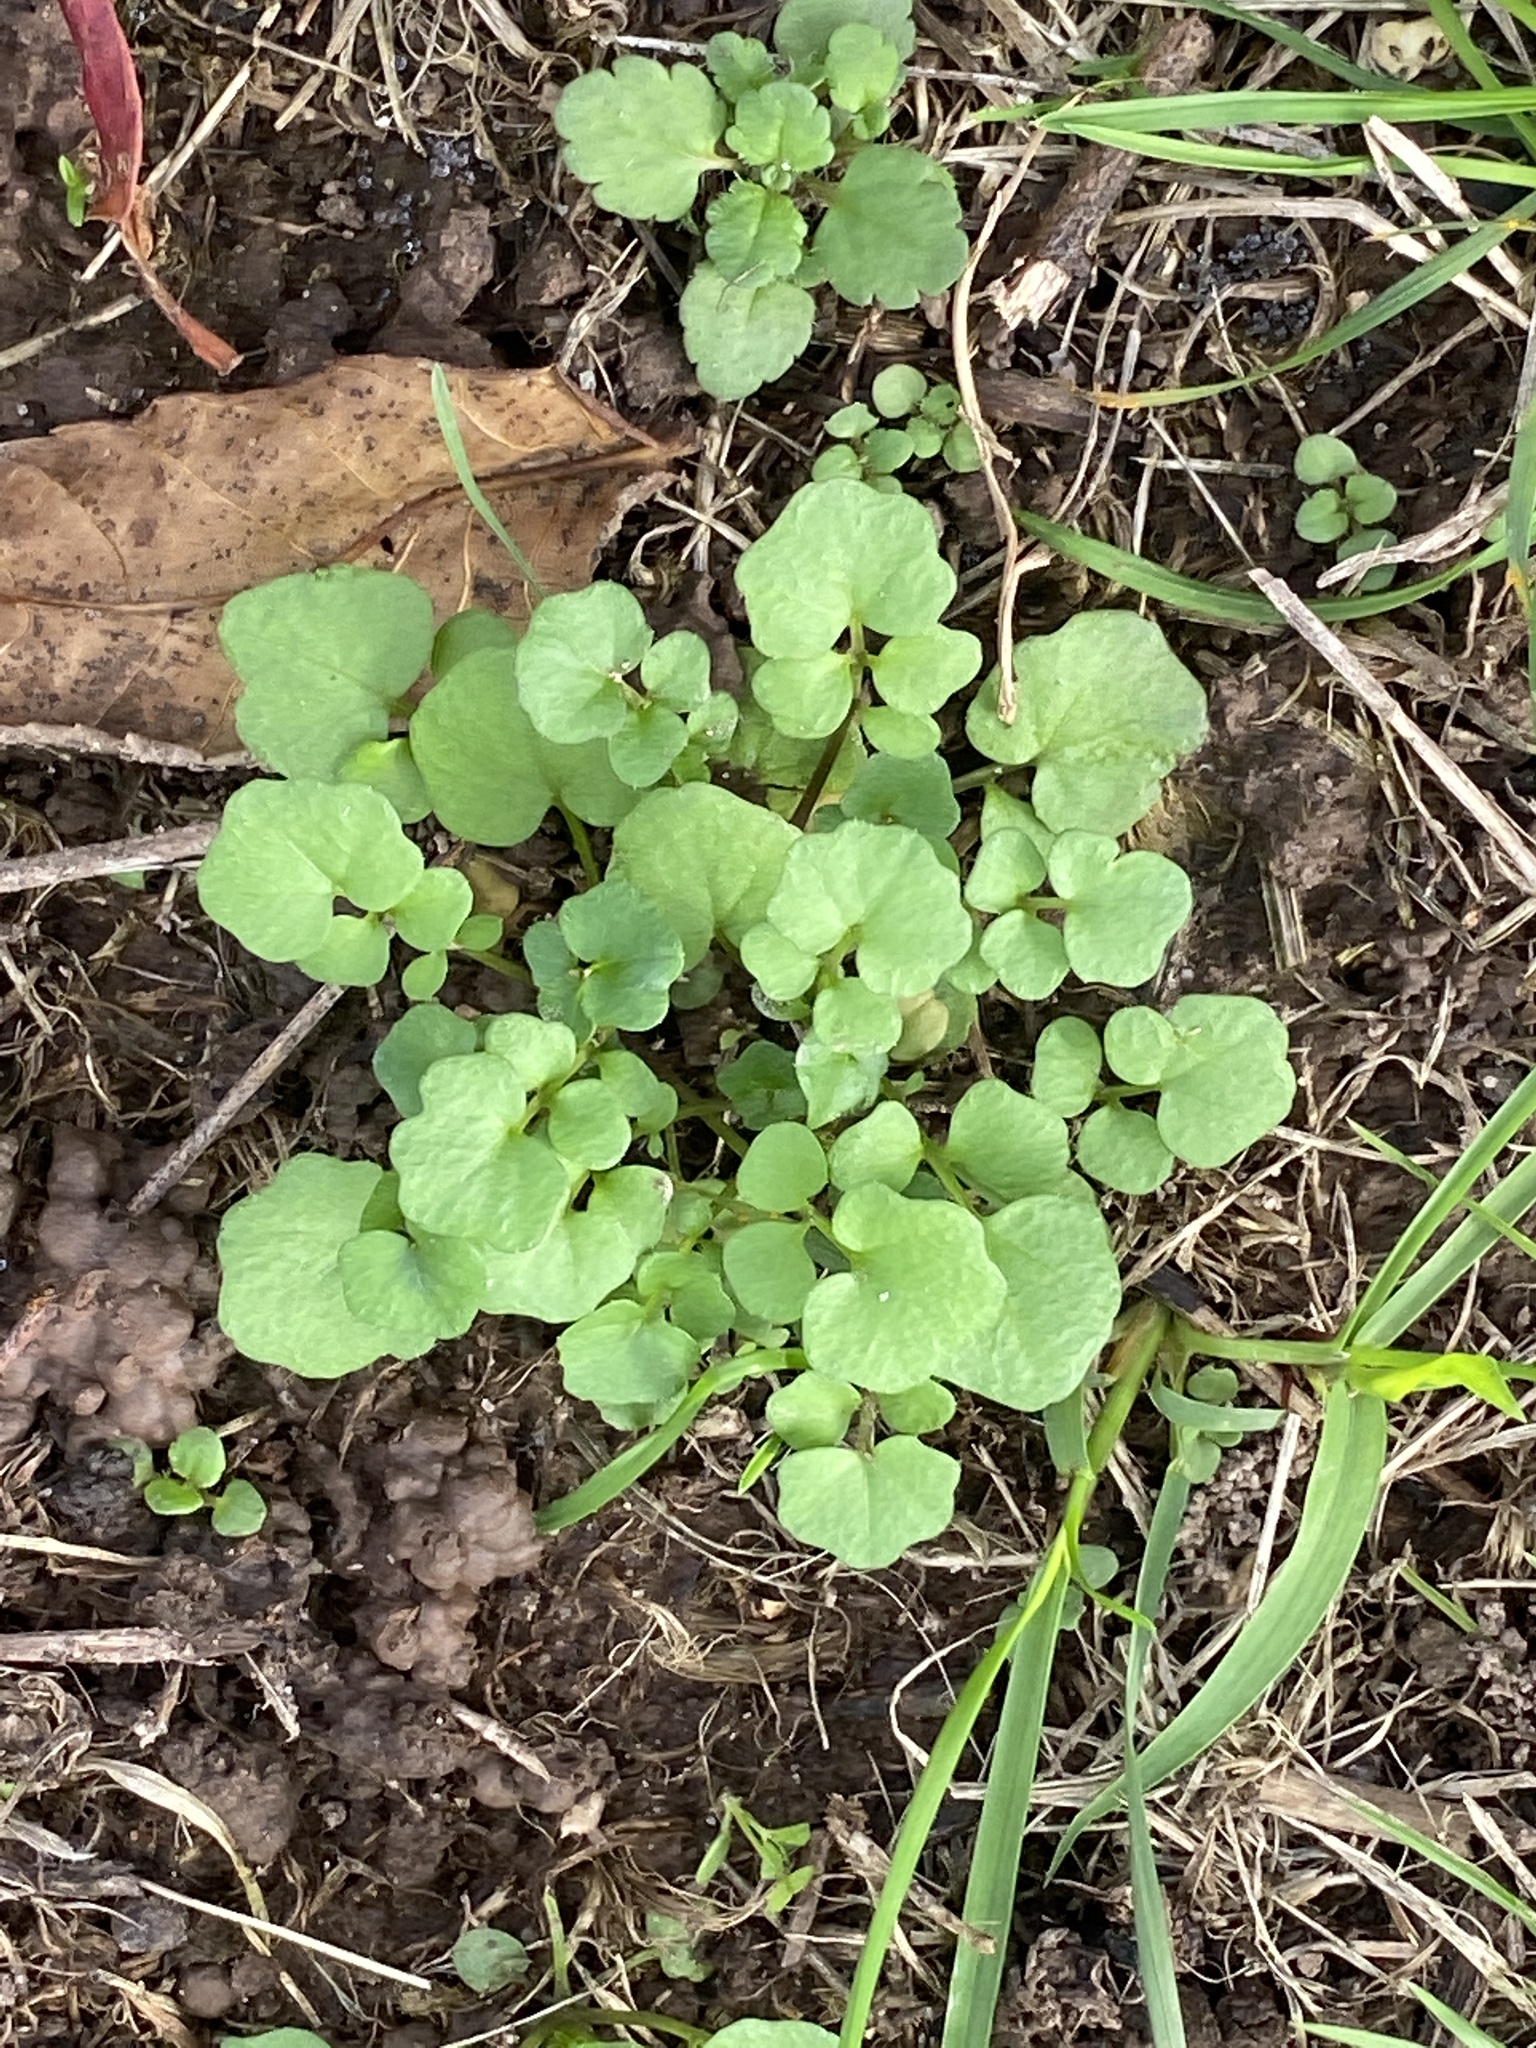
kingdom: Plantae
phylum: Tracheophyta
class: Magnoliopsida
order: Brassicales
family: Brassicaceae
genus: Cardamine
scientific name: Cardamine hirsuta
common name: Hairy bittercress
